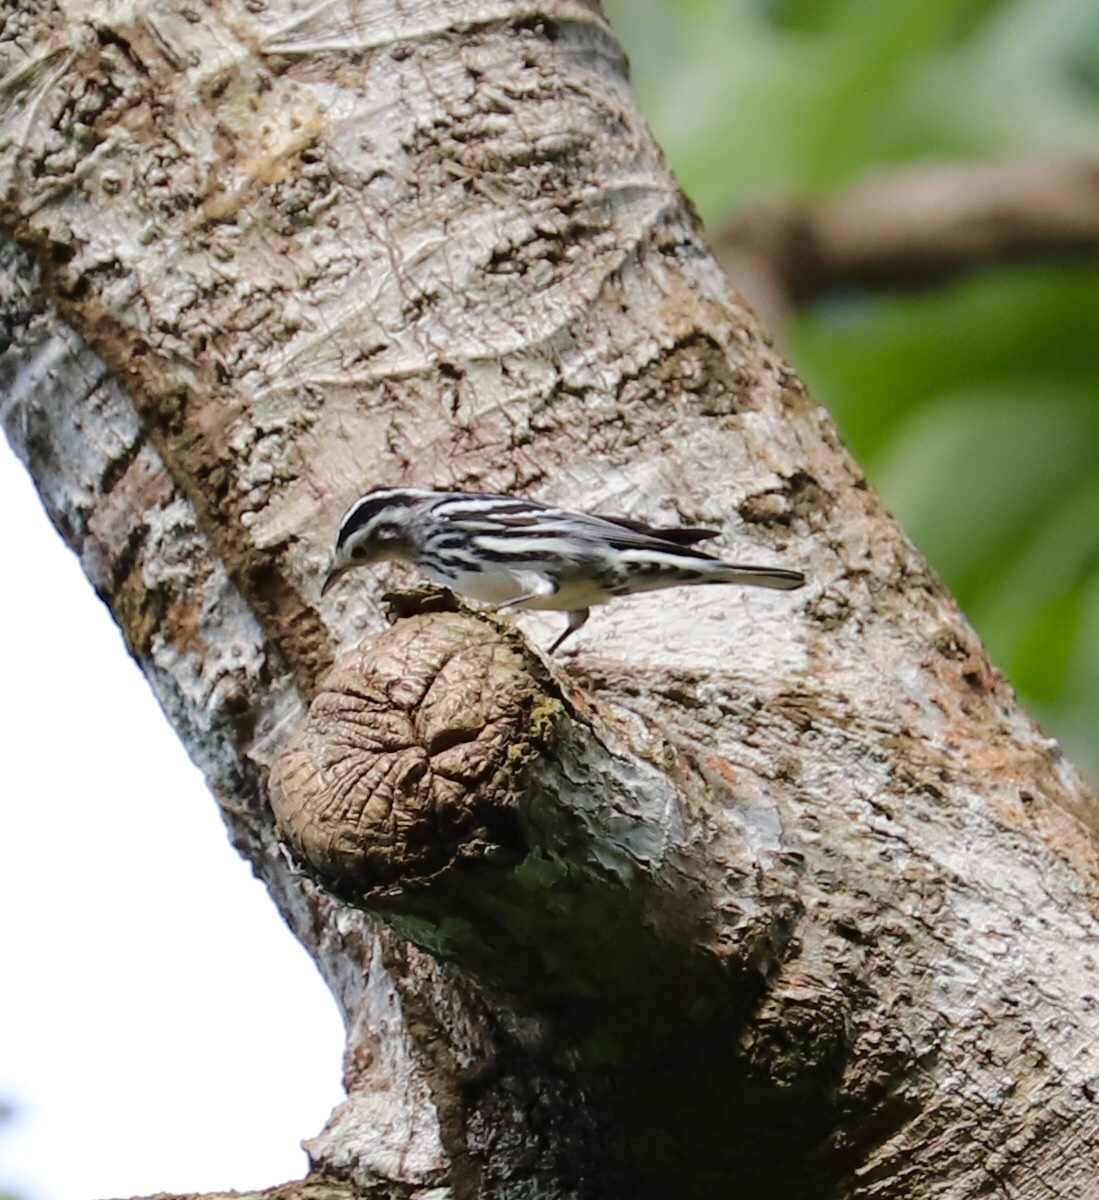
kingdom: Animalia
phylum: Chordata
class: Aves
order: Passeriformes
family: Parulidae
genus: Mniotilta
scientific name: Mniotilta varia
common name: Black-and-white warbler
